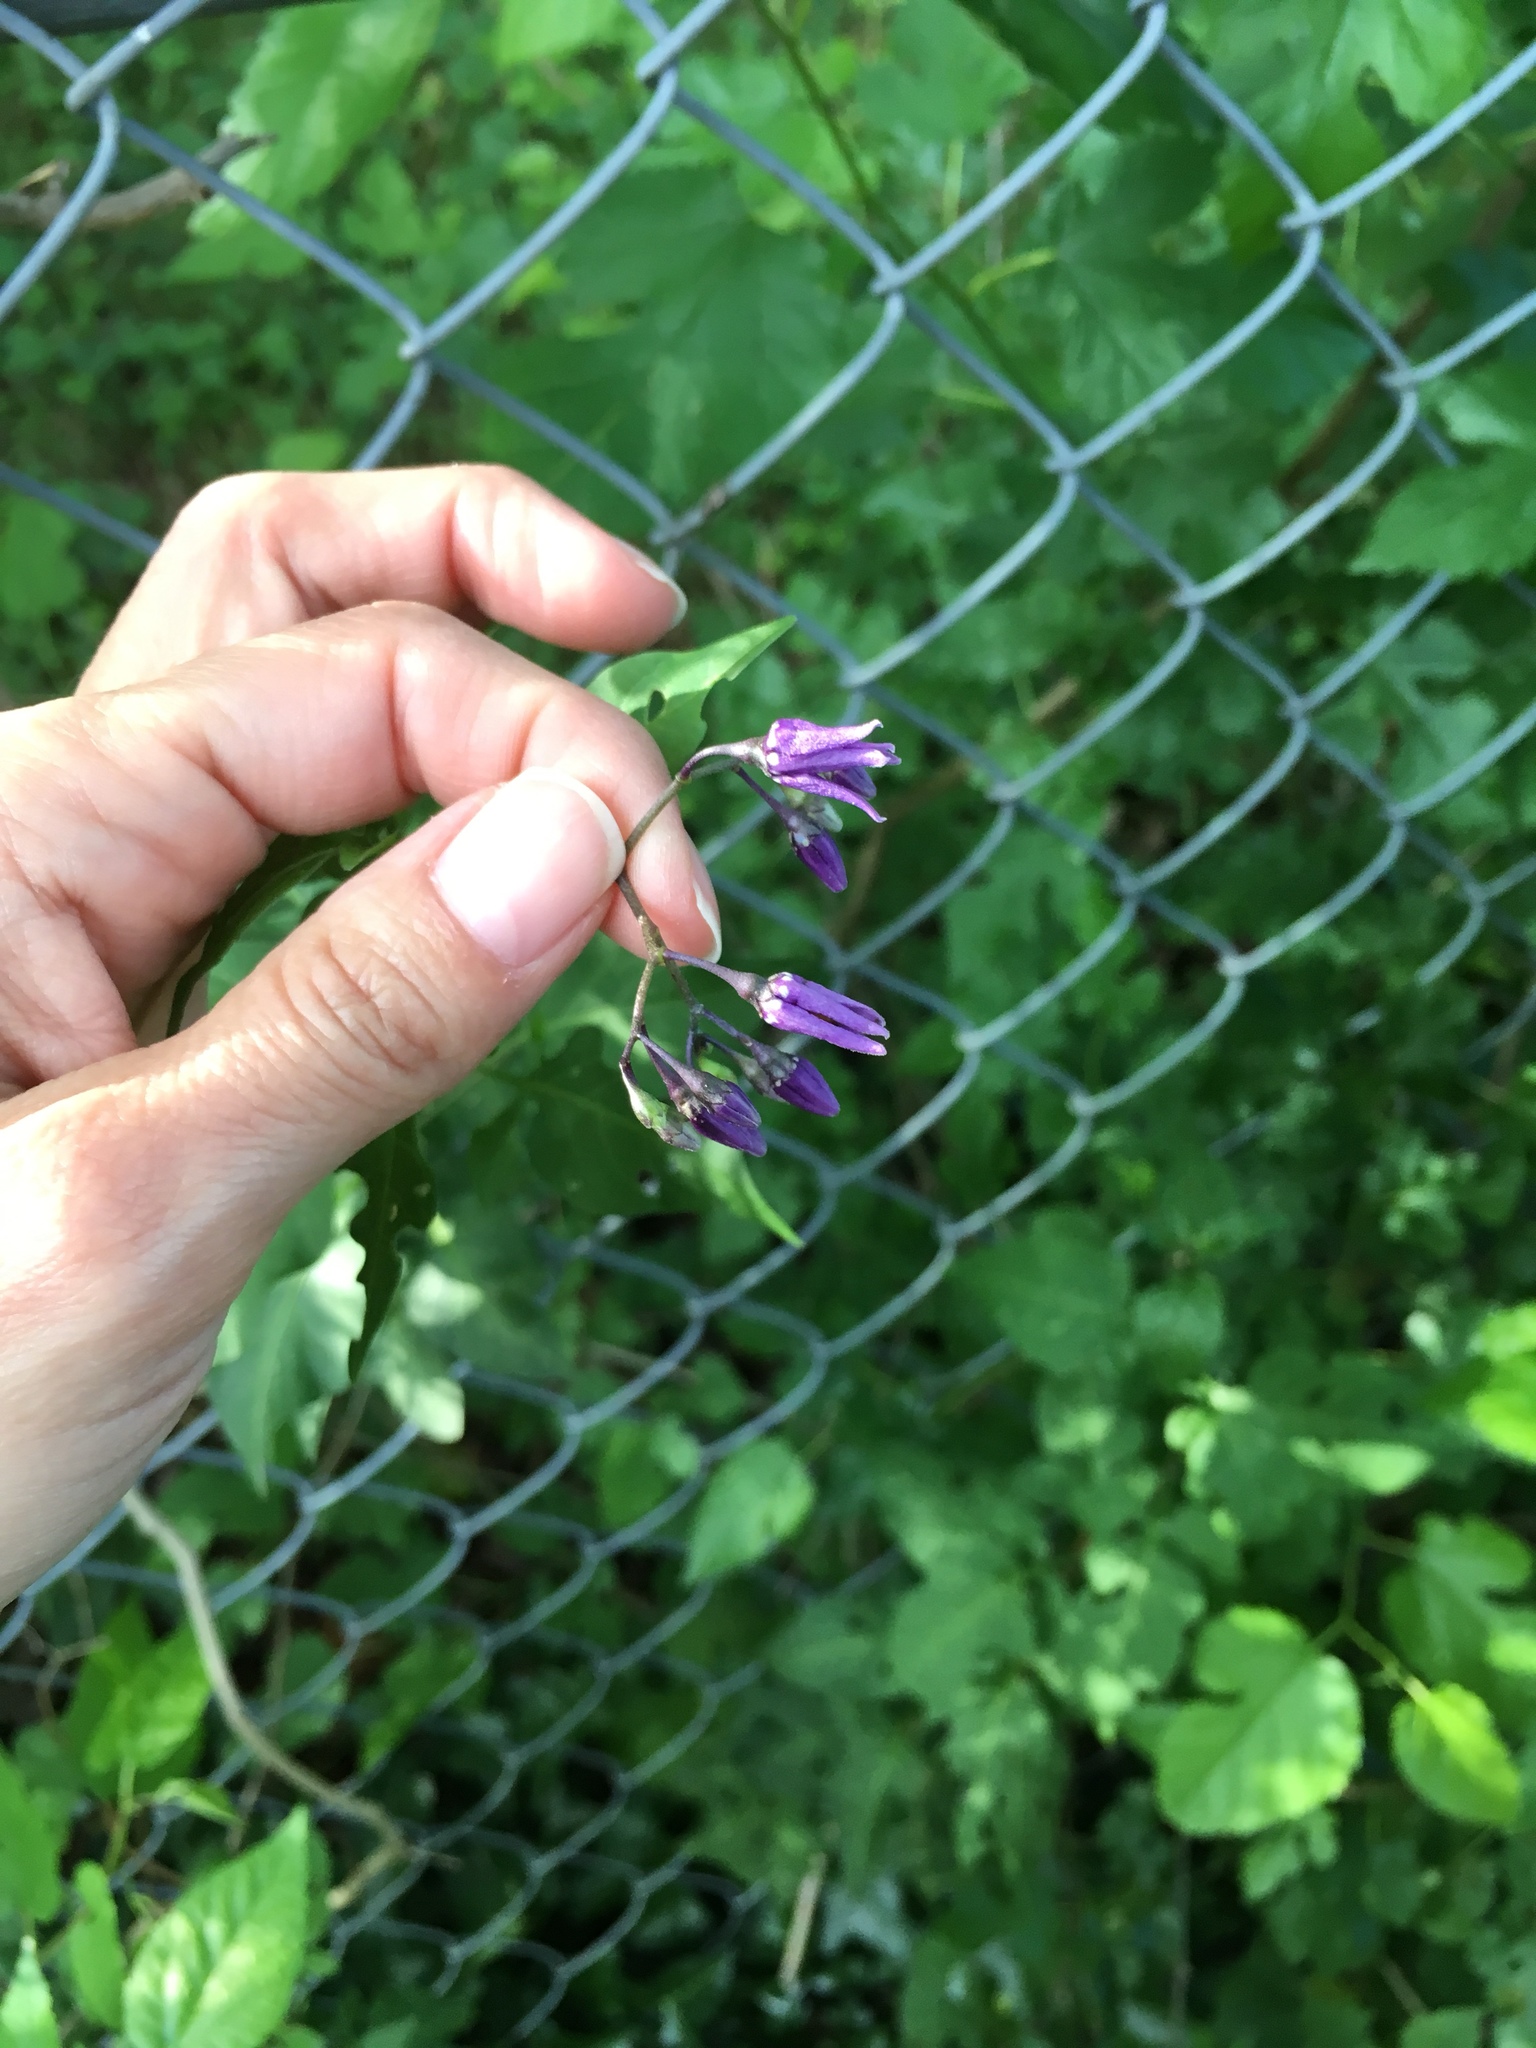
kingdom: Plantae
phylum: Tracheophyta
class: Magnoliopsida
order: Solanales
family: Solanaceae
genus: Solanum
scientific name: Solanum dulcamara
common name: Climbing nightshade
